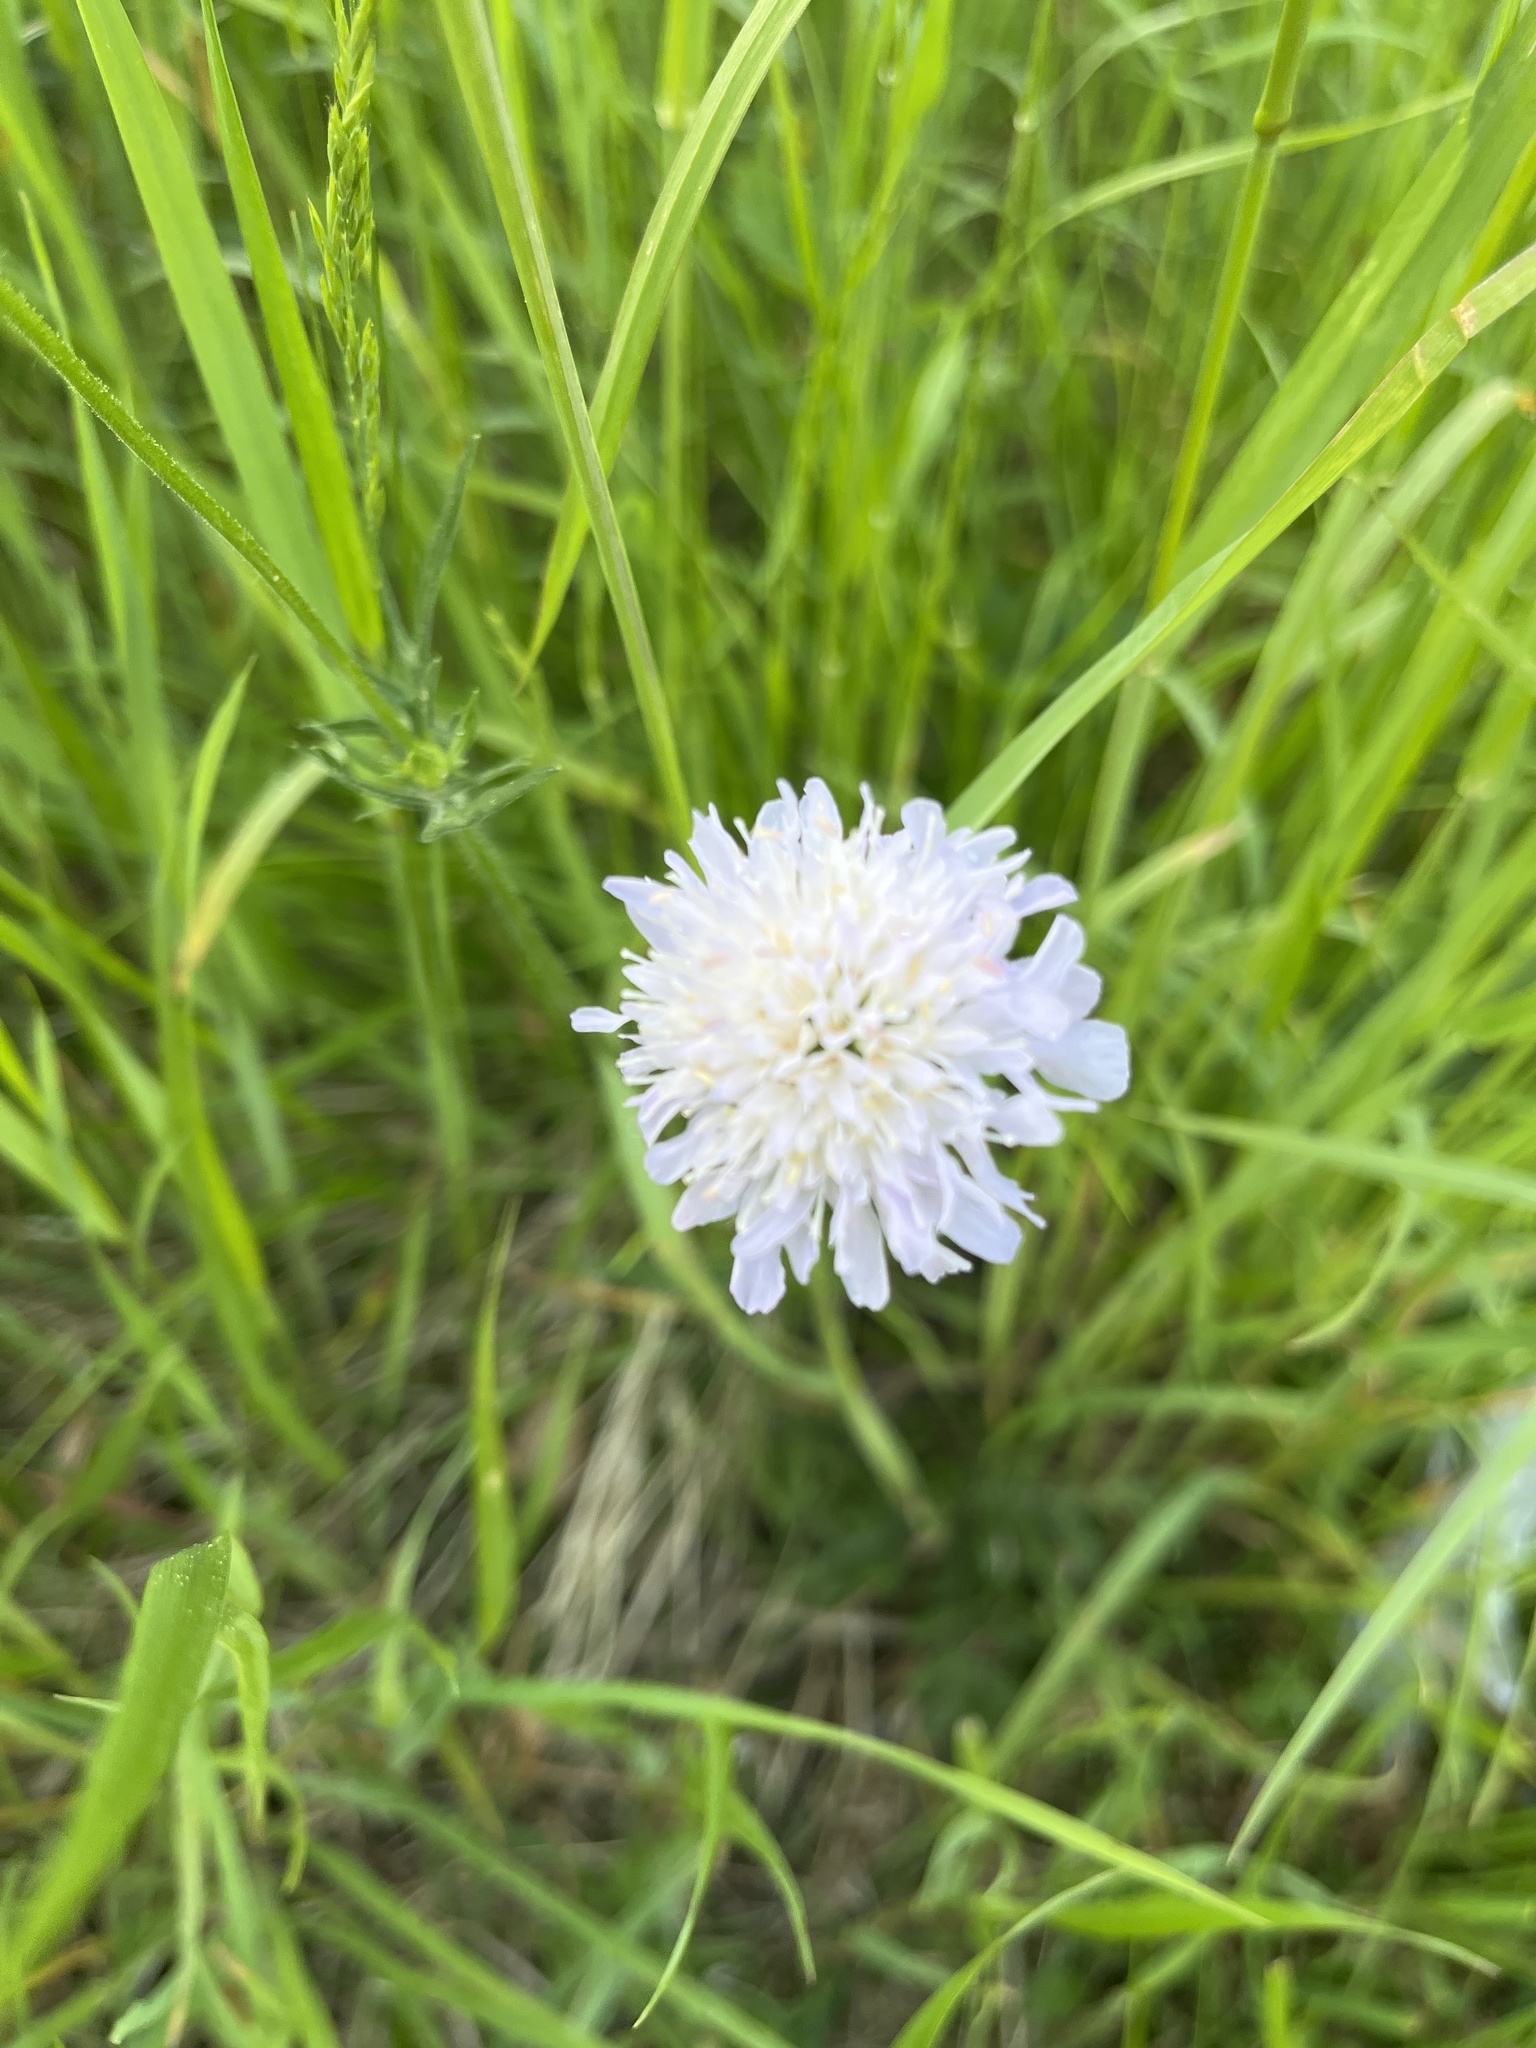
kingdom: Plantae
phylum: Tracheophyta
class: Magnoliopsida
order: Dipsacales
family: Caprifoliaceae
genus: Knautia
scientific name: Knautia arvensis
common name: Field scabiosa
